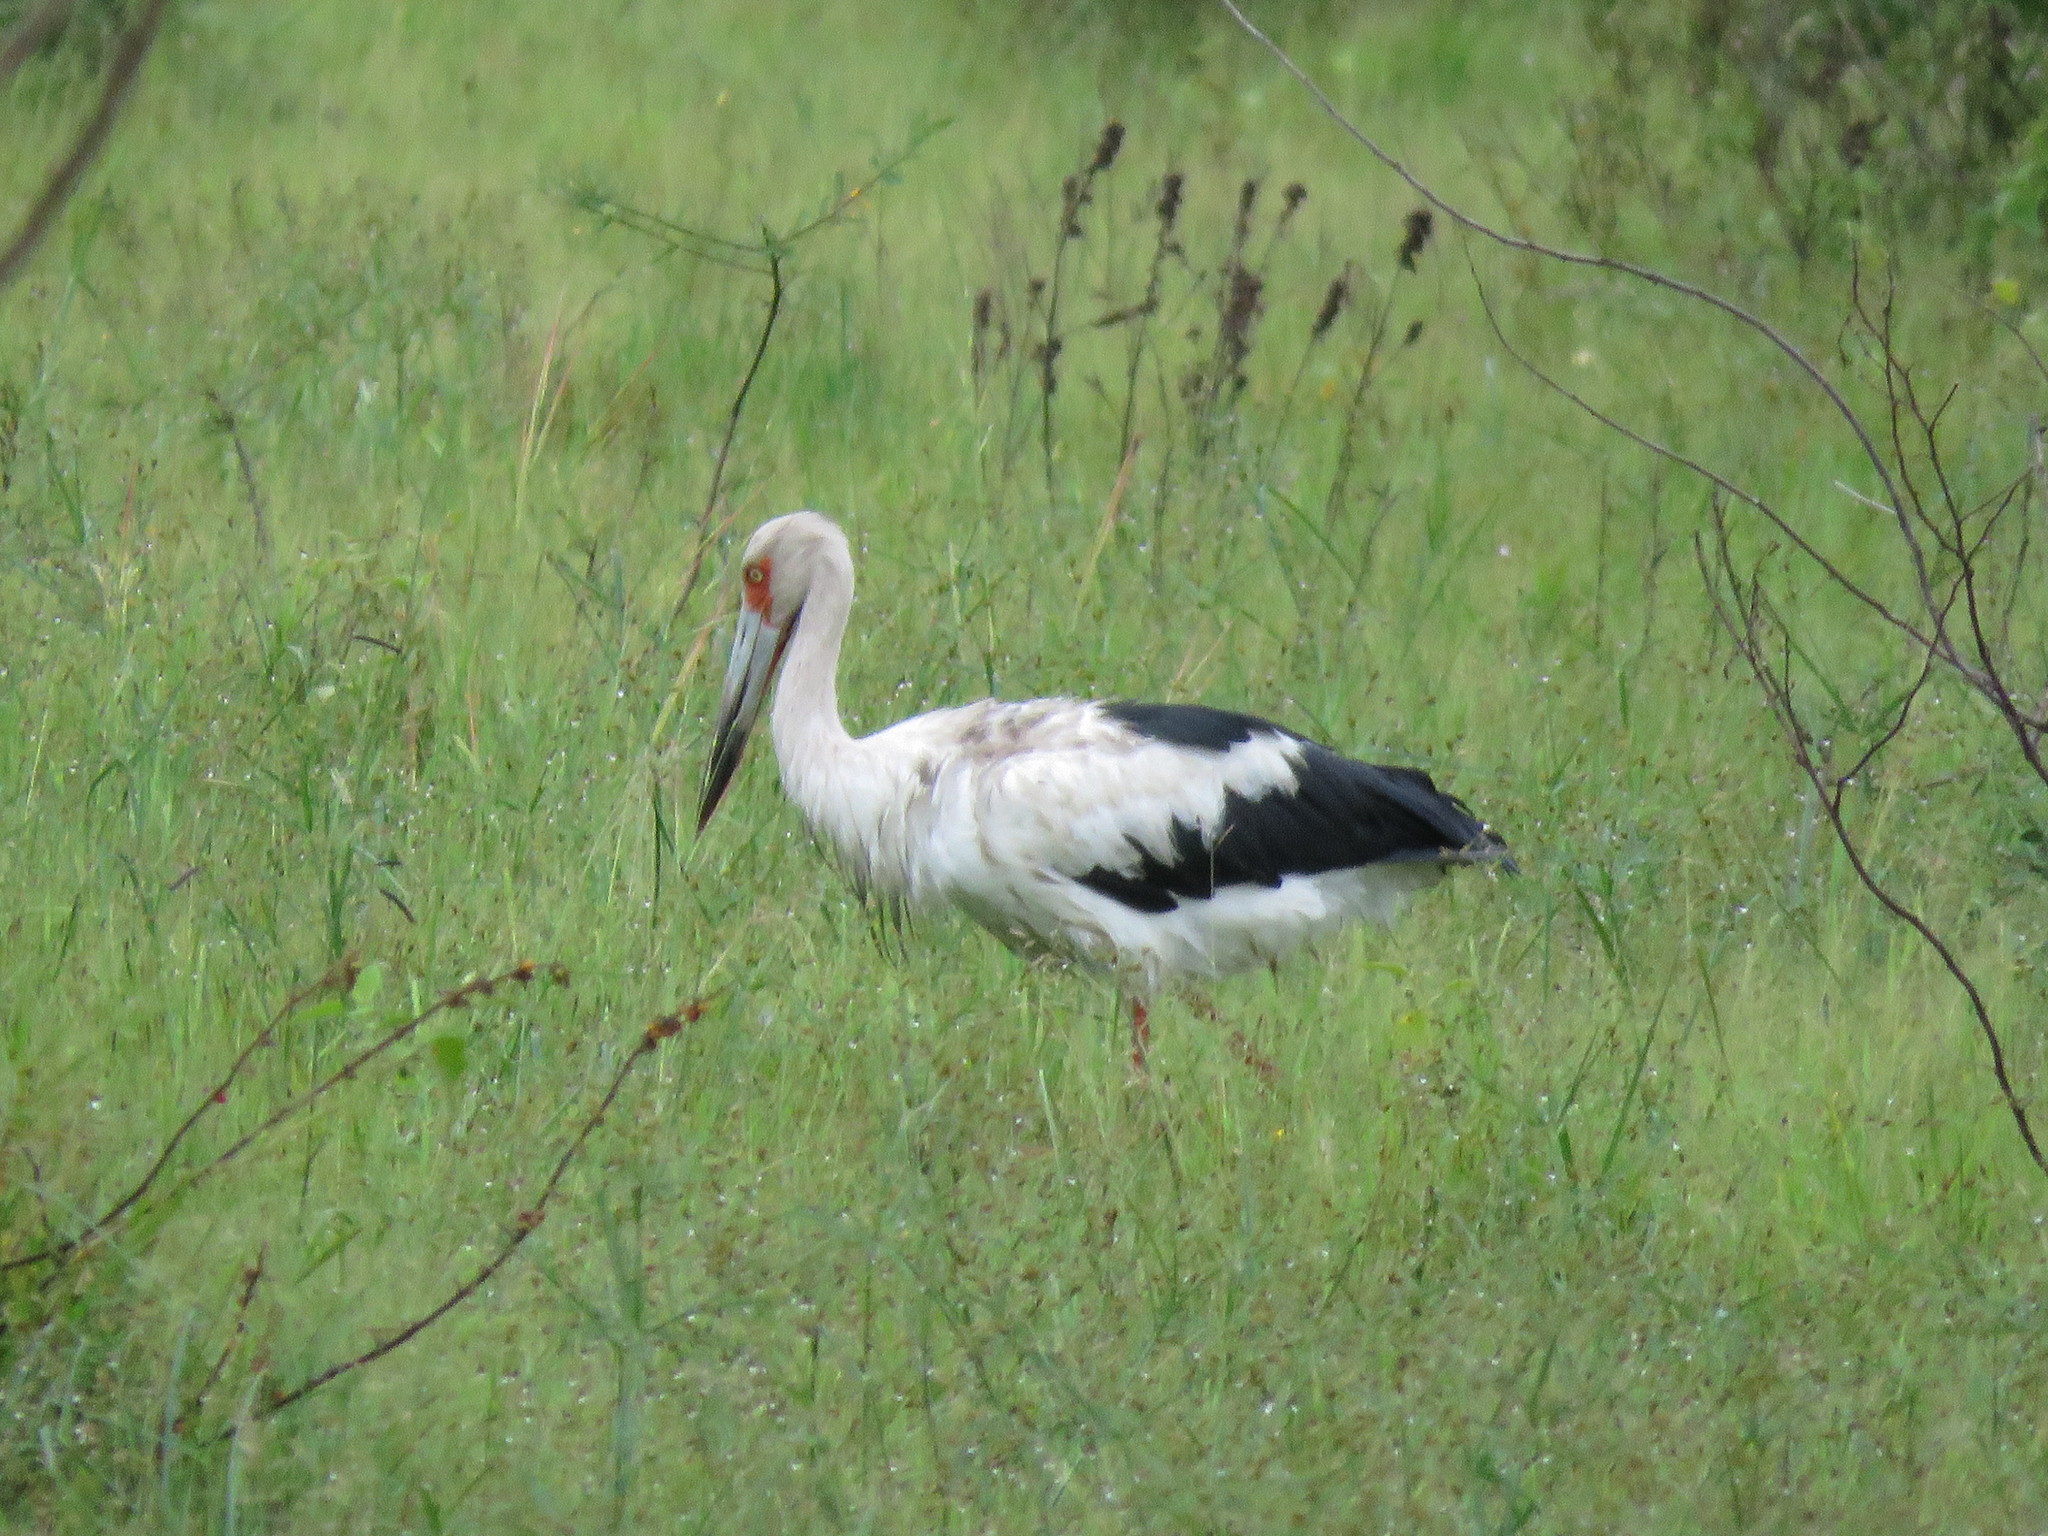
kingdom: Animalia
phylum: Chordata
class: Aves
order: Ciconiiformes
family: Ciconiidae
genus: Ciconia
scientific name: Ciconia maguari
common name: Maguari stork
